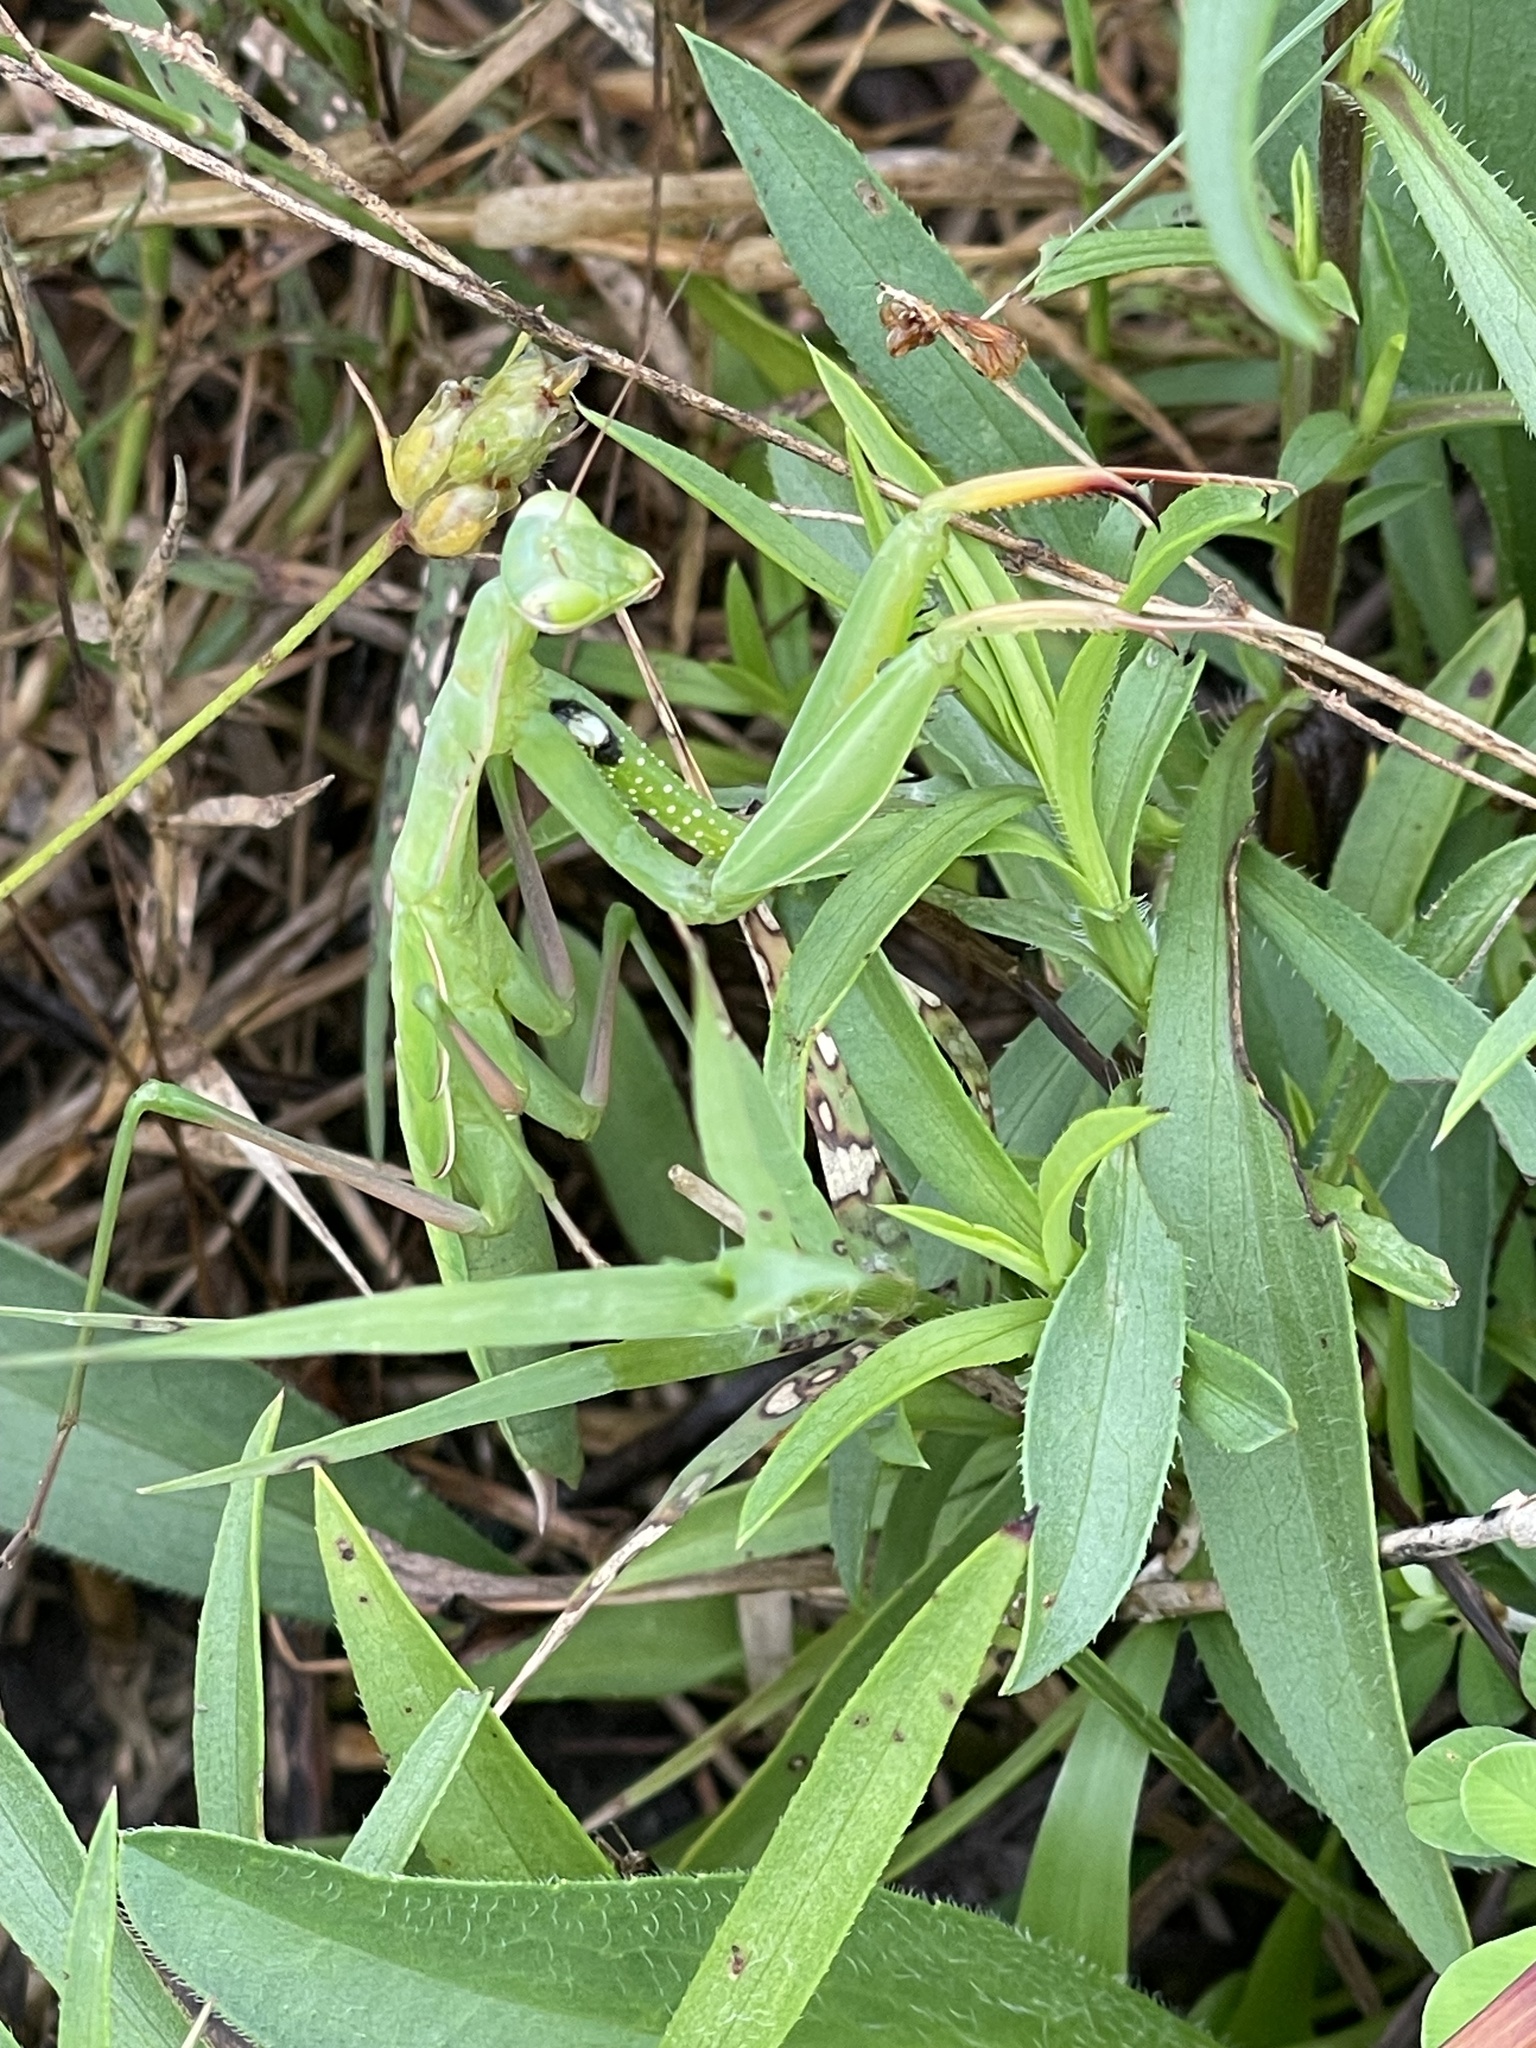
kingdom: Animalia
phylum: Arthropoda
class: Insecta
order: Mantodea
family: Mantidae
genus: Mantis
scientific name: Mantis religiosa
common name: Praying mantis
